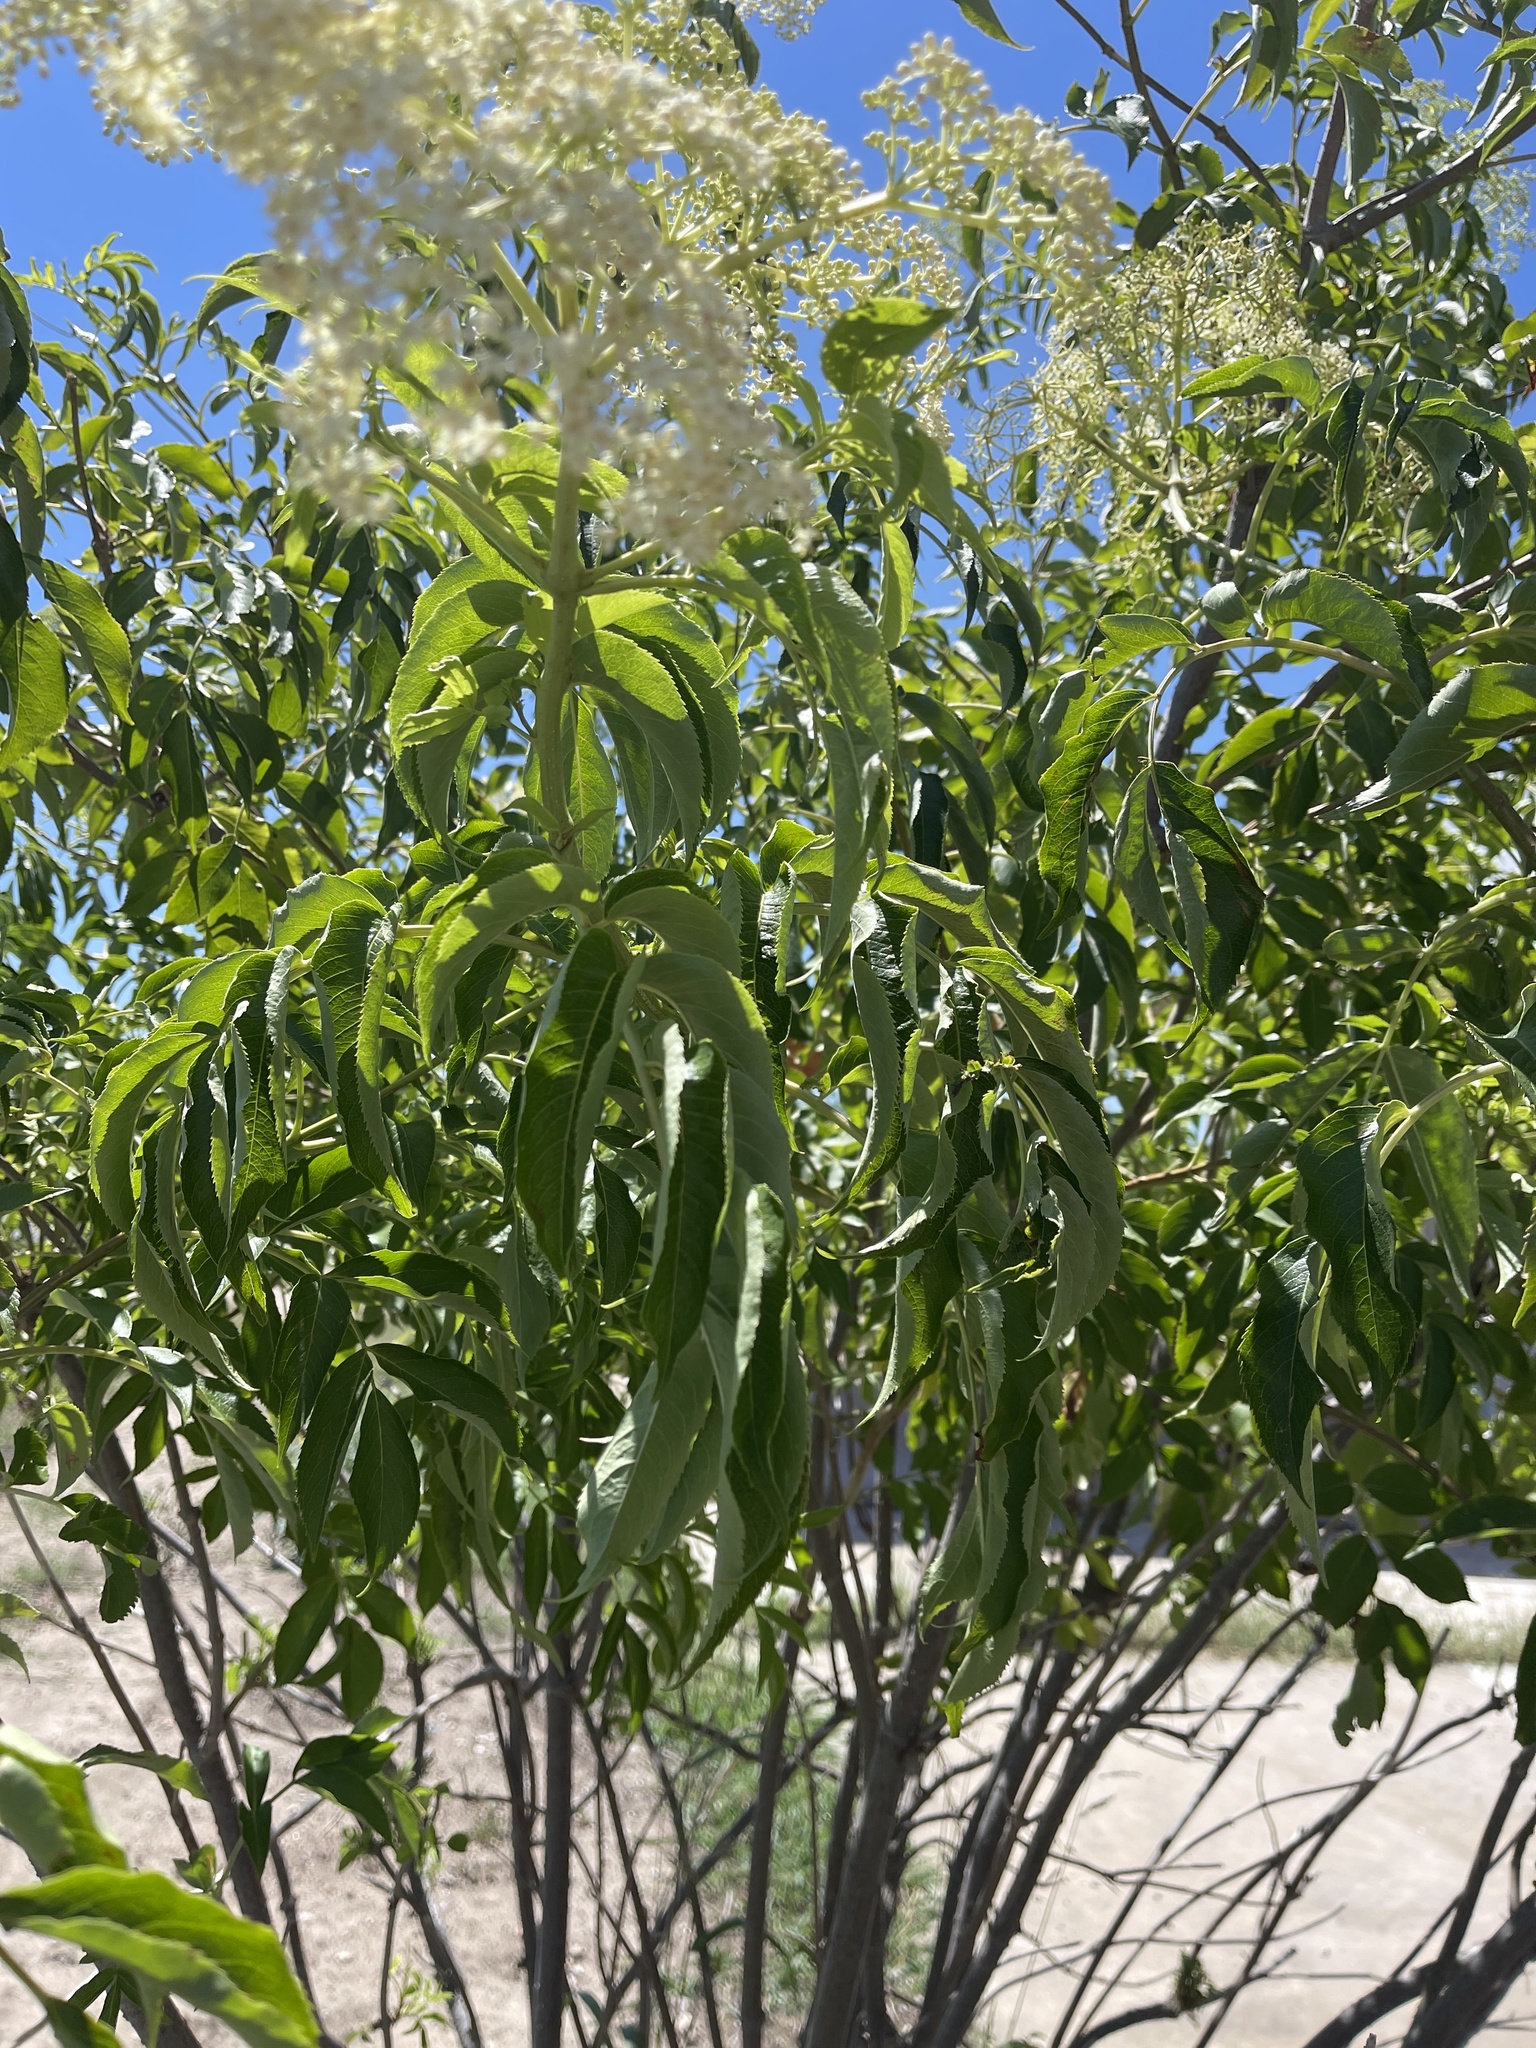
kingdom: Plantae
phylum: Tracheophyta
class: Magnoliopsida
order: Dipsacales
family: Viburnaceae
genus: Sambucus
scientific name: Sambucus canadensis
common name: American elder
